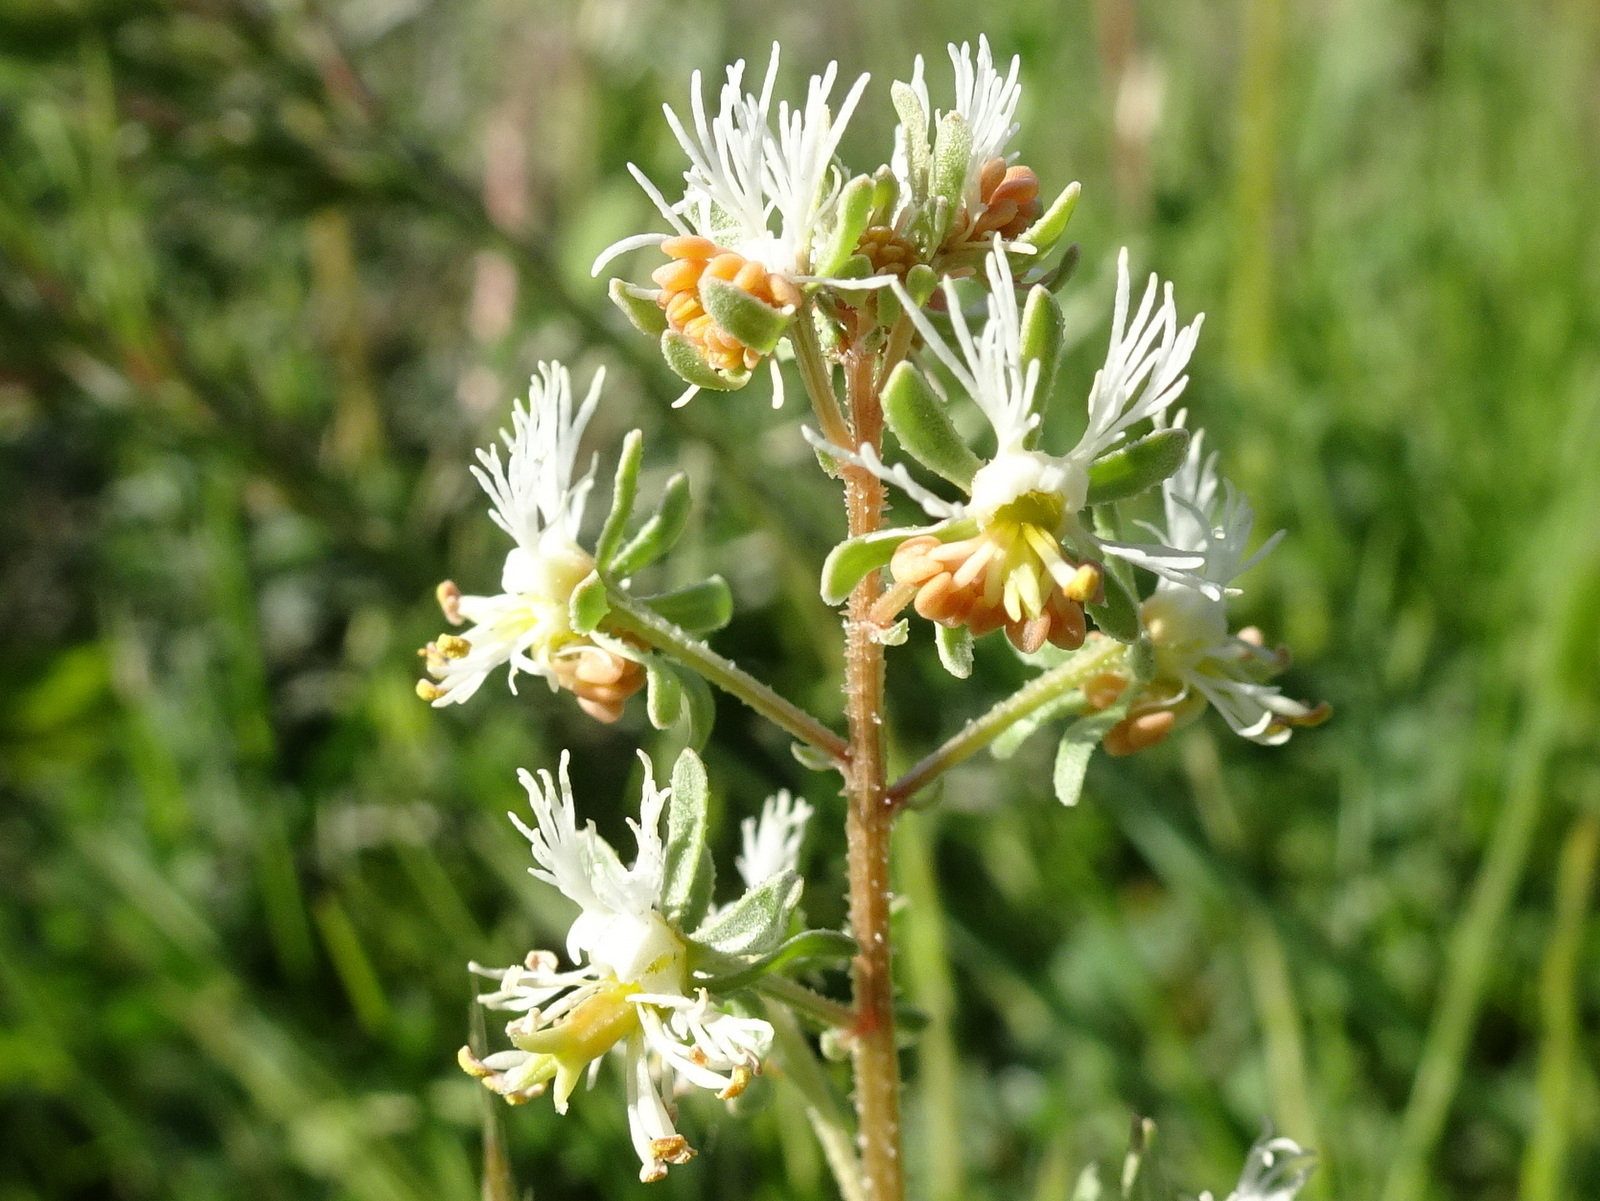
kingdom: Plantae
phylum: Tracheophyta
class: Magnoliopsida
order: Brassicales
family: Resedaceae
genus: Reseda
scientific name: Reseda phyteuma
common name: Corn mignonette
